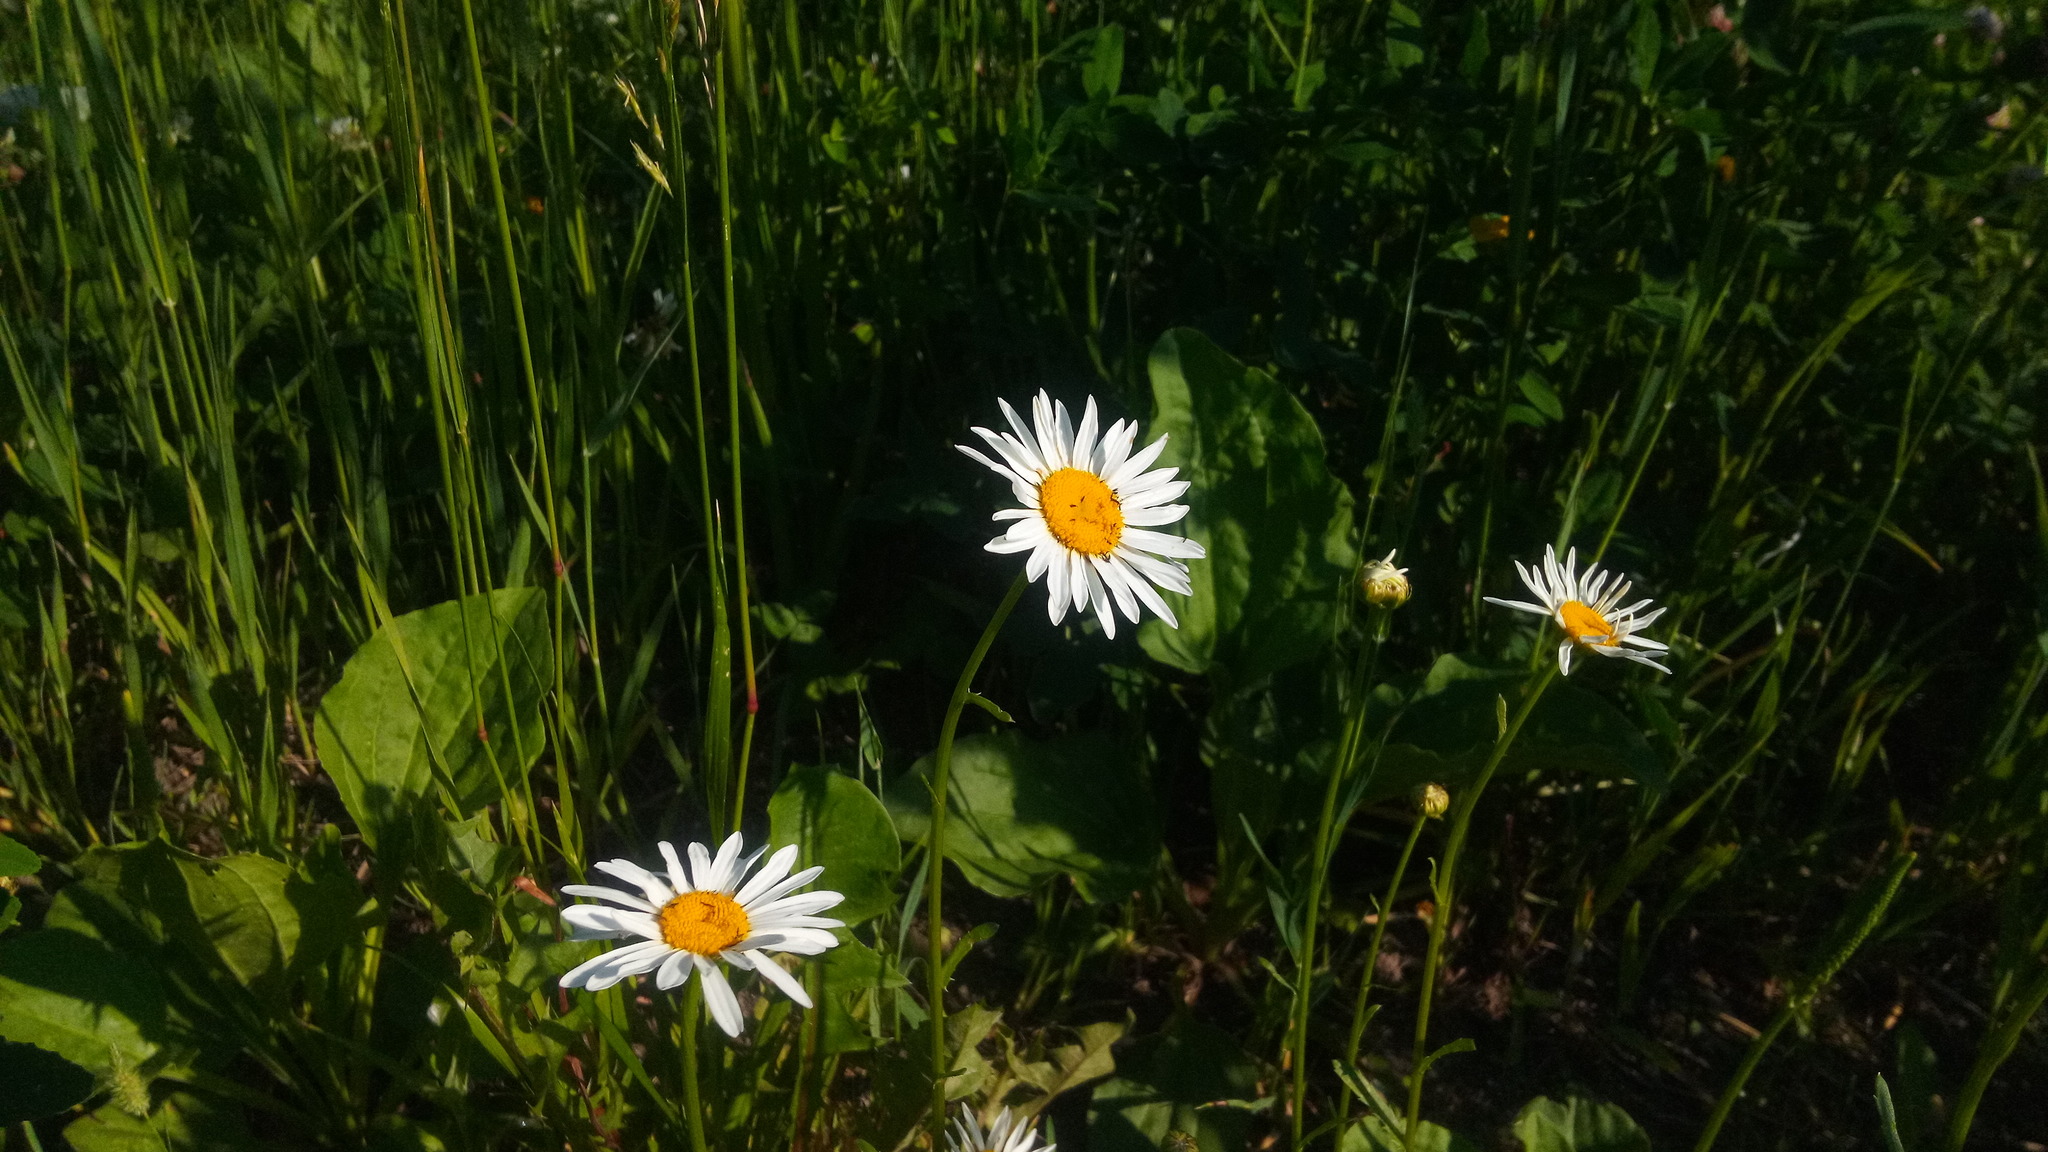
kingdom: Plantae
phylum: Tracheophyta
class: Magnoliopsida
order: Asterales
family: Asteraceae
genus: Leucanthemum
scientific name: Leucanthemum vulgare
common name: Oxeye daisy
